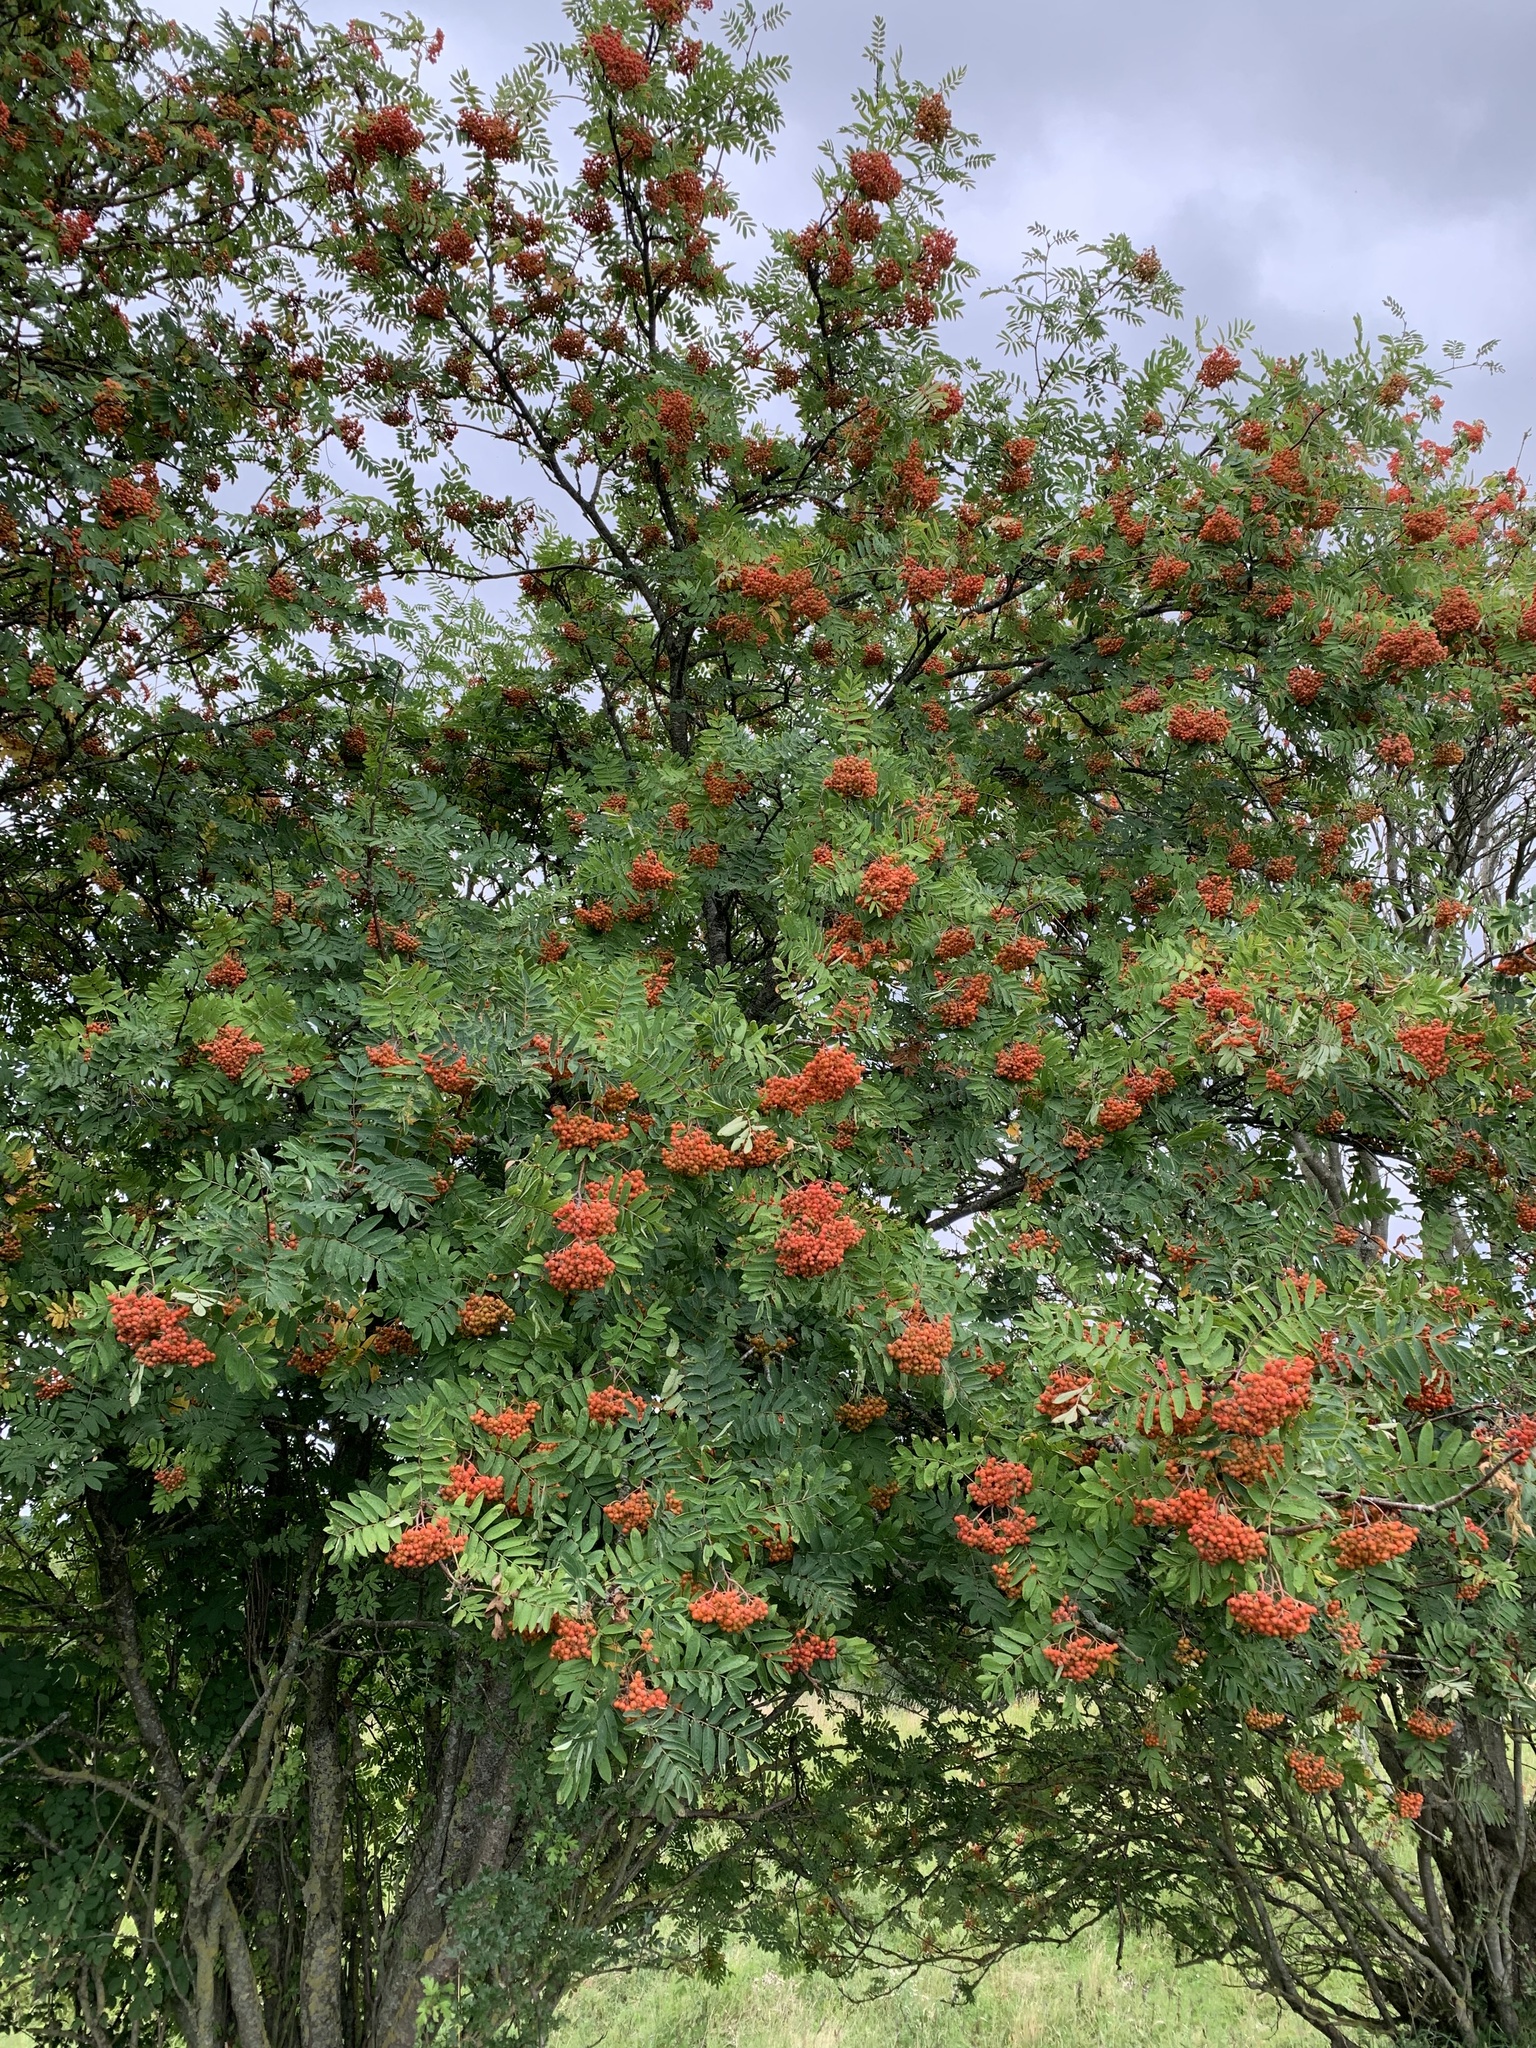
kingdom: Plantae
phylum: Tracheophyta
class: Magnoliopsida
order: Rosales
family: Rosaceae
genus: Sorbus
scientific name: Sorbus aucuparia
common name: Rowan
